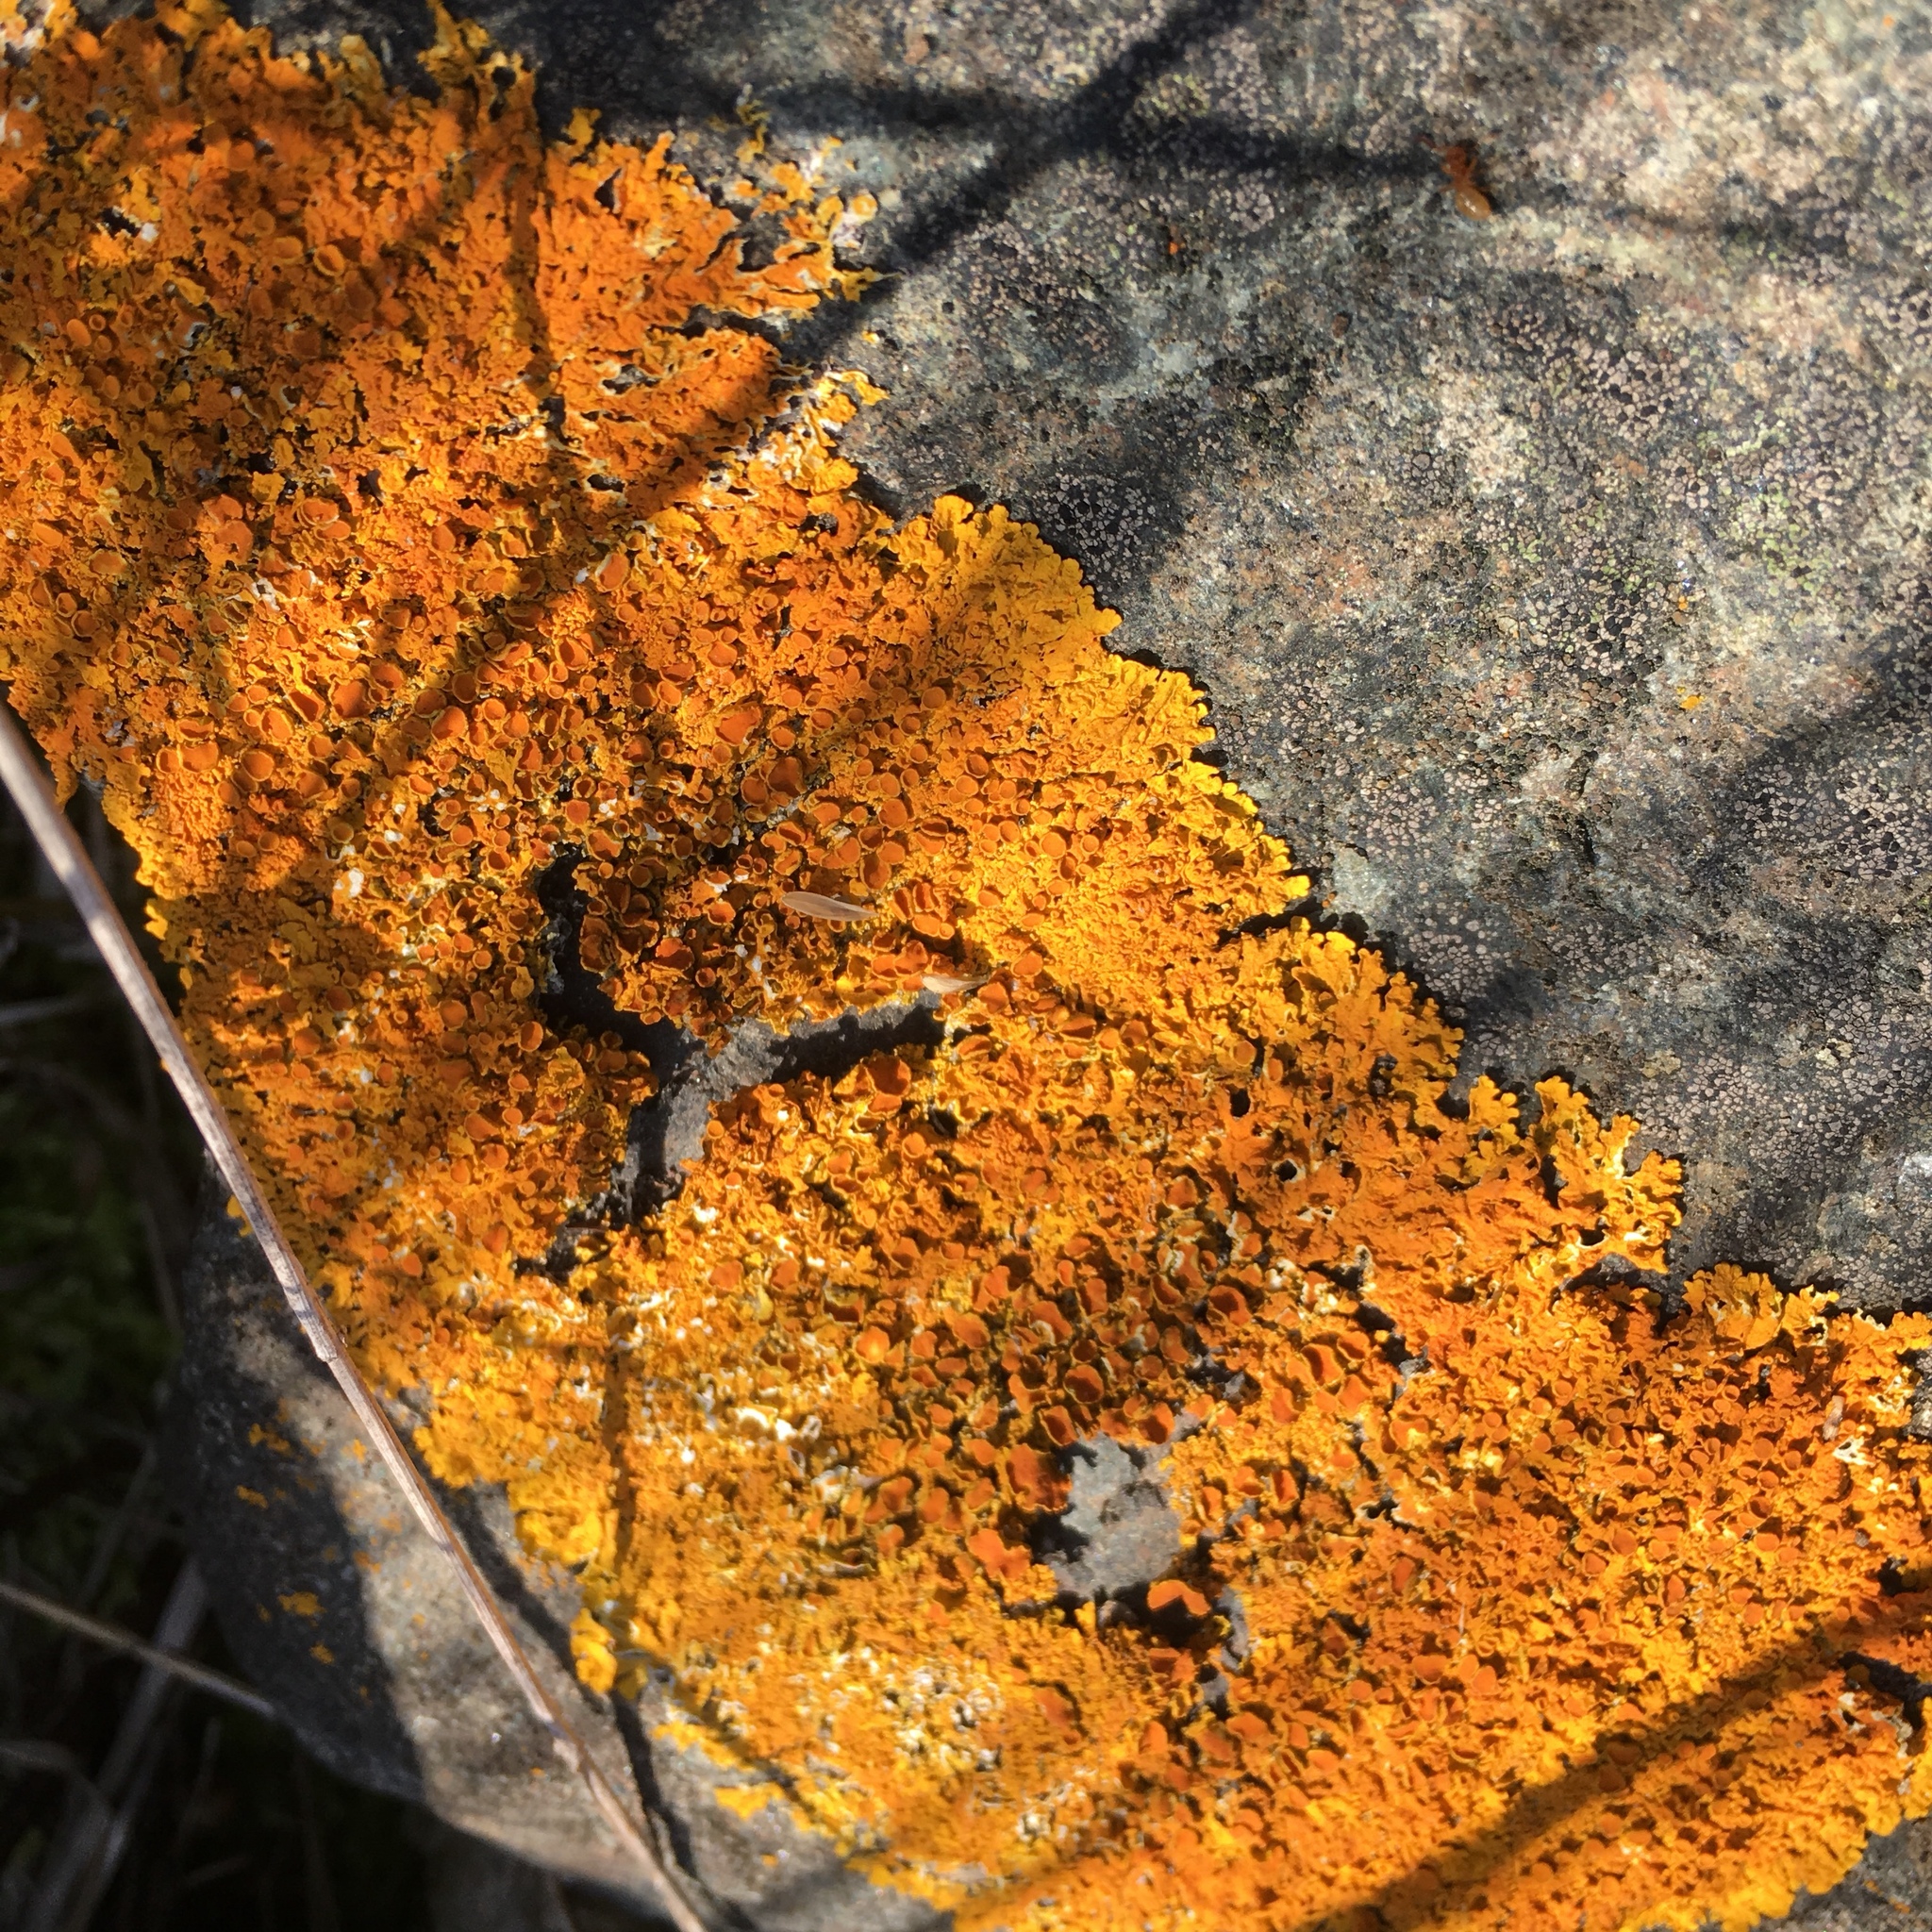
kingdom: Fungi
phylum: Ascomycota
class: Lecanoromycetes
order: Teloschistales
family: Teloschistaceae
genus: Xanthoria
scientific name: Xanthoria parietina
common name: Common orange lichen
